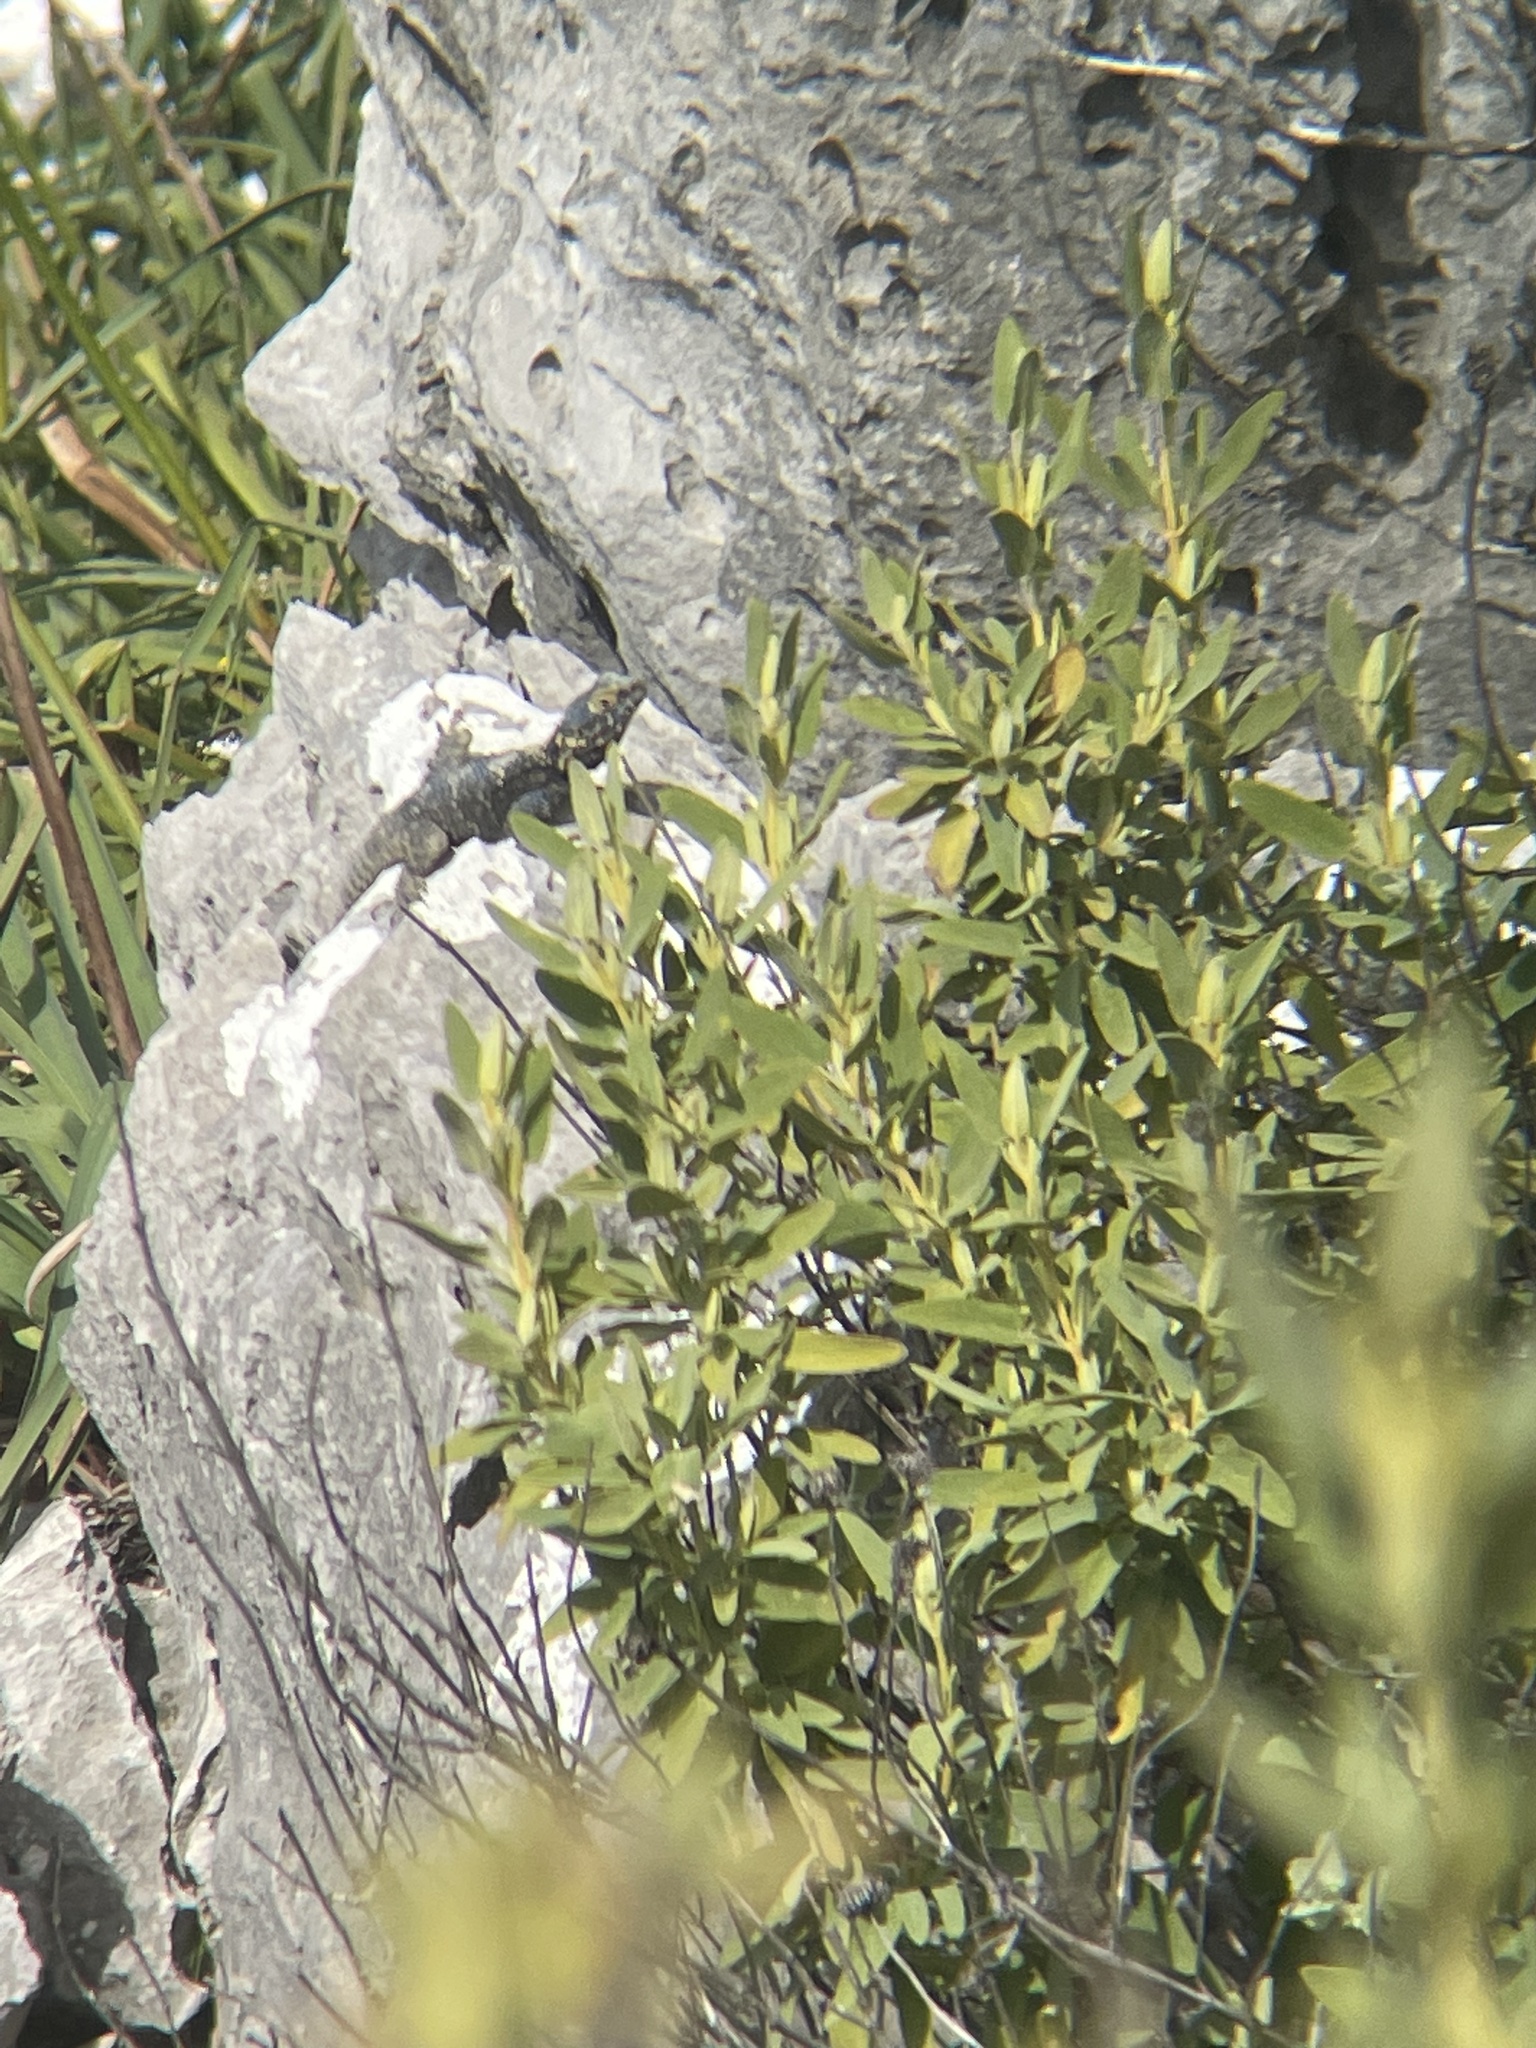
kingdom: Animalia
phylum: Chordata
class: Squamata
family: Agamidae
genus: Stellagama
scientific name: Stellagama stellio
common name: Starred agama
